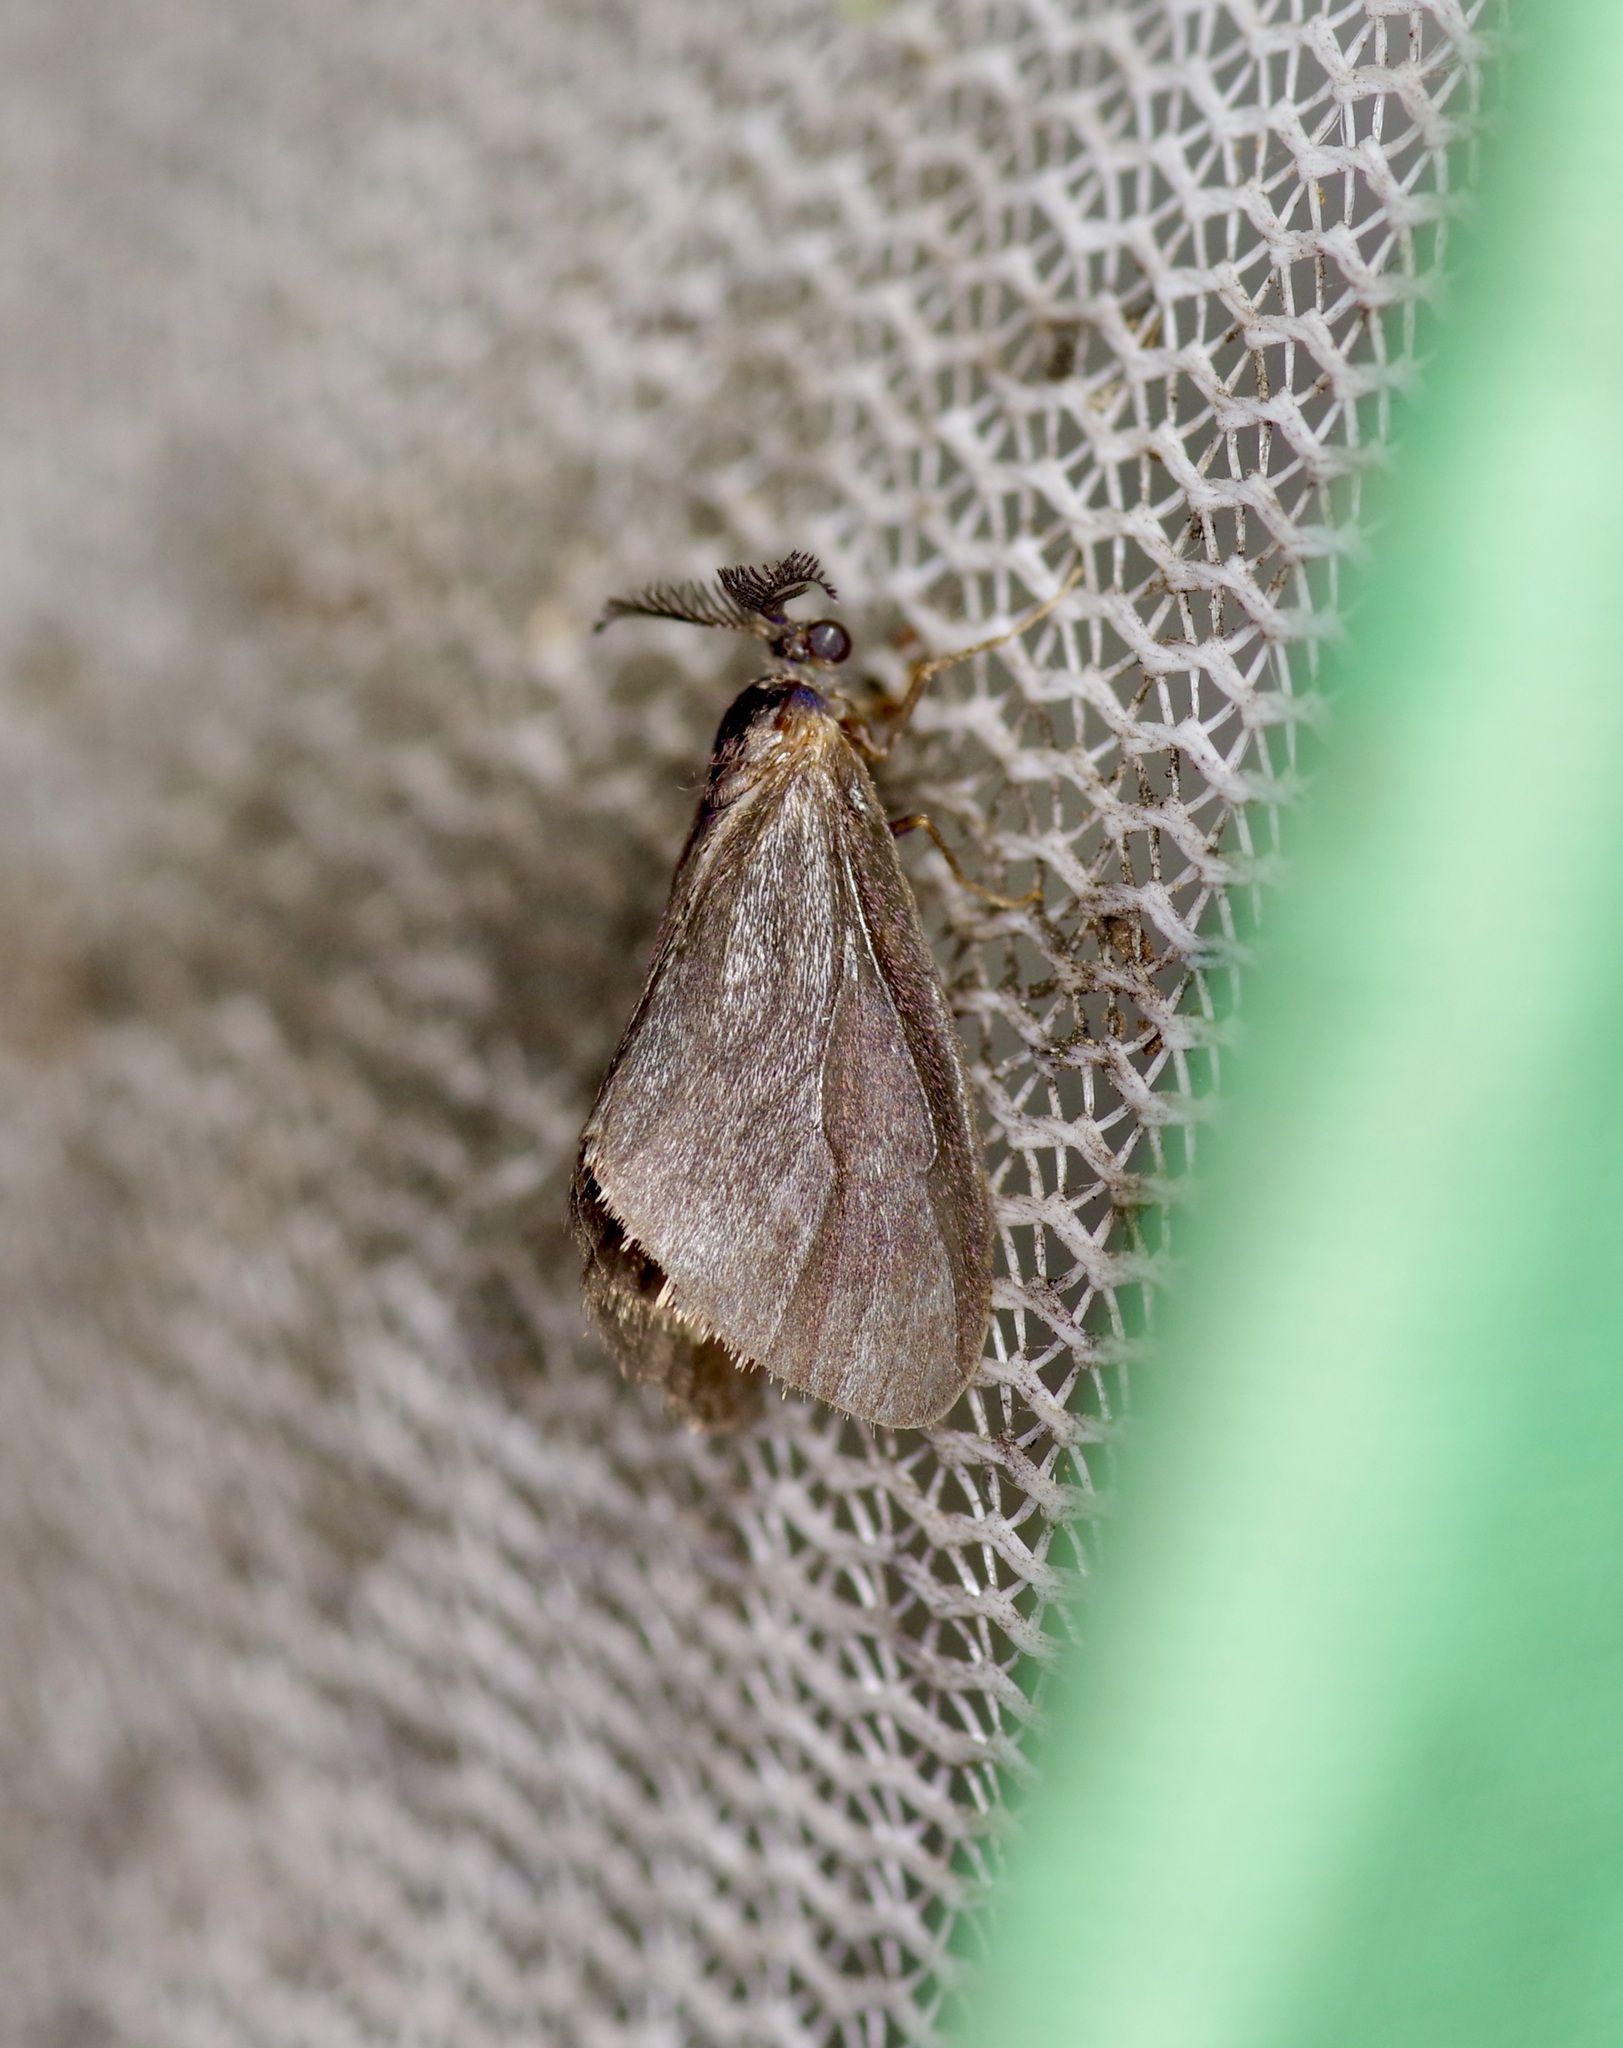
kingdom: Animalia
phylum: Arthropoda
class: Insecta
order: Lepidoptera
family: Psychidae
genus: Cryptothelea
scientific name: Cryptothelea gloverii
